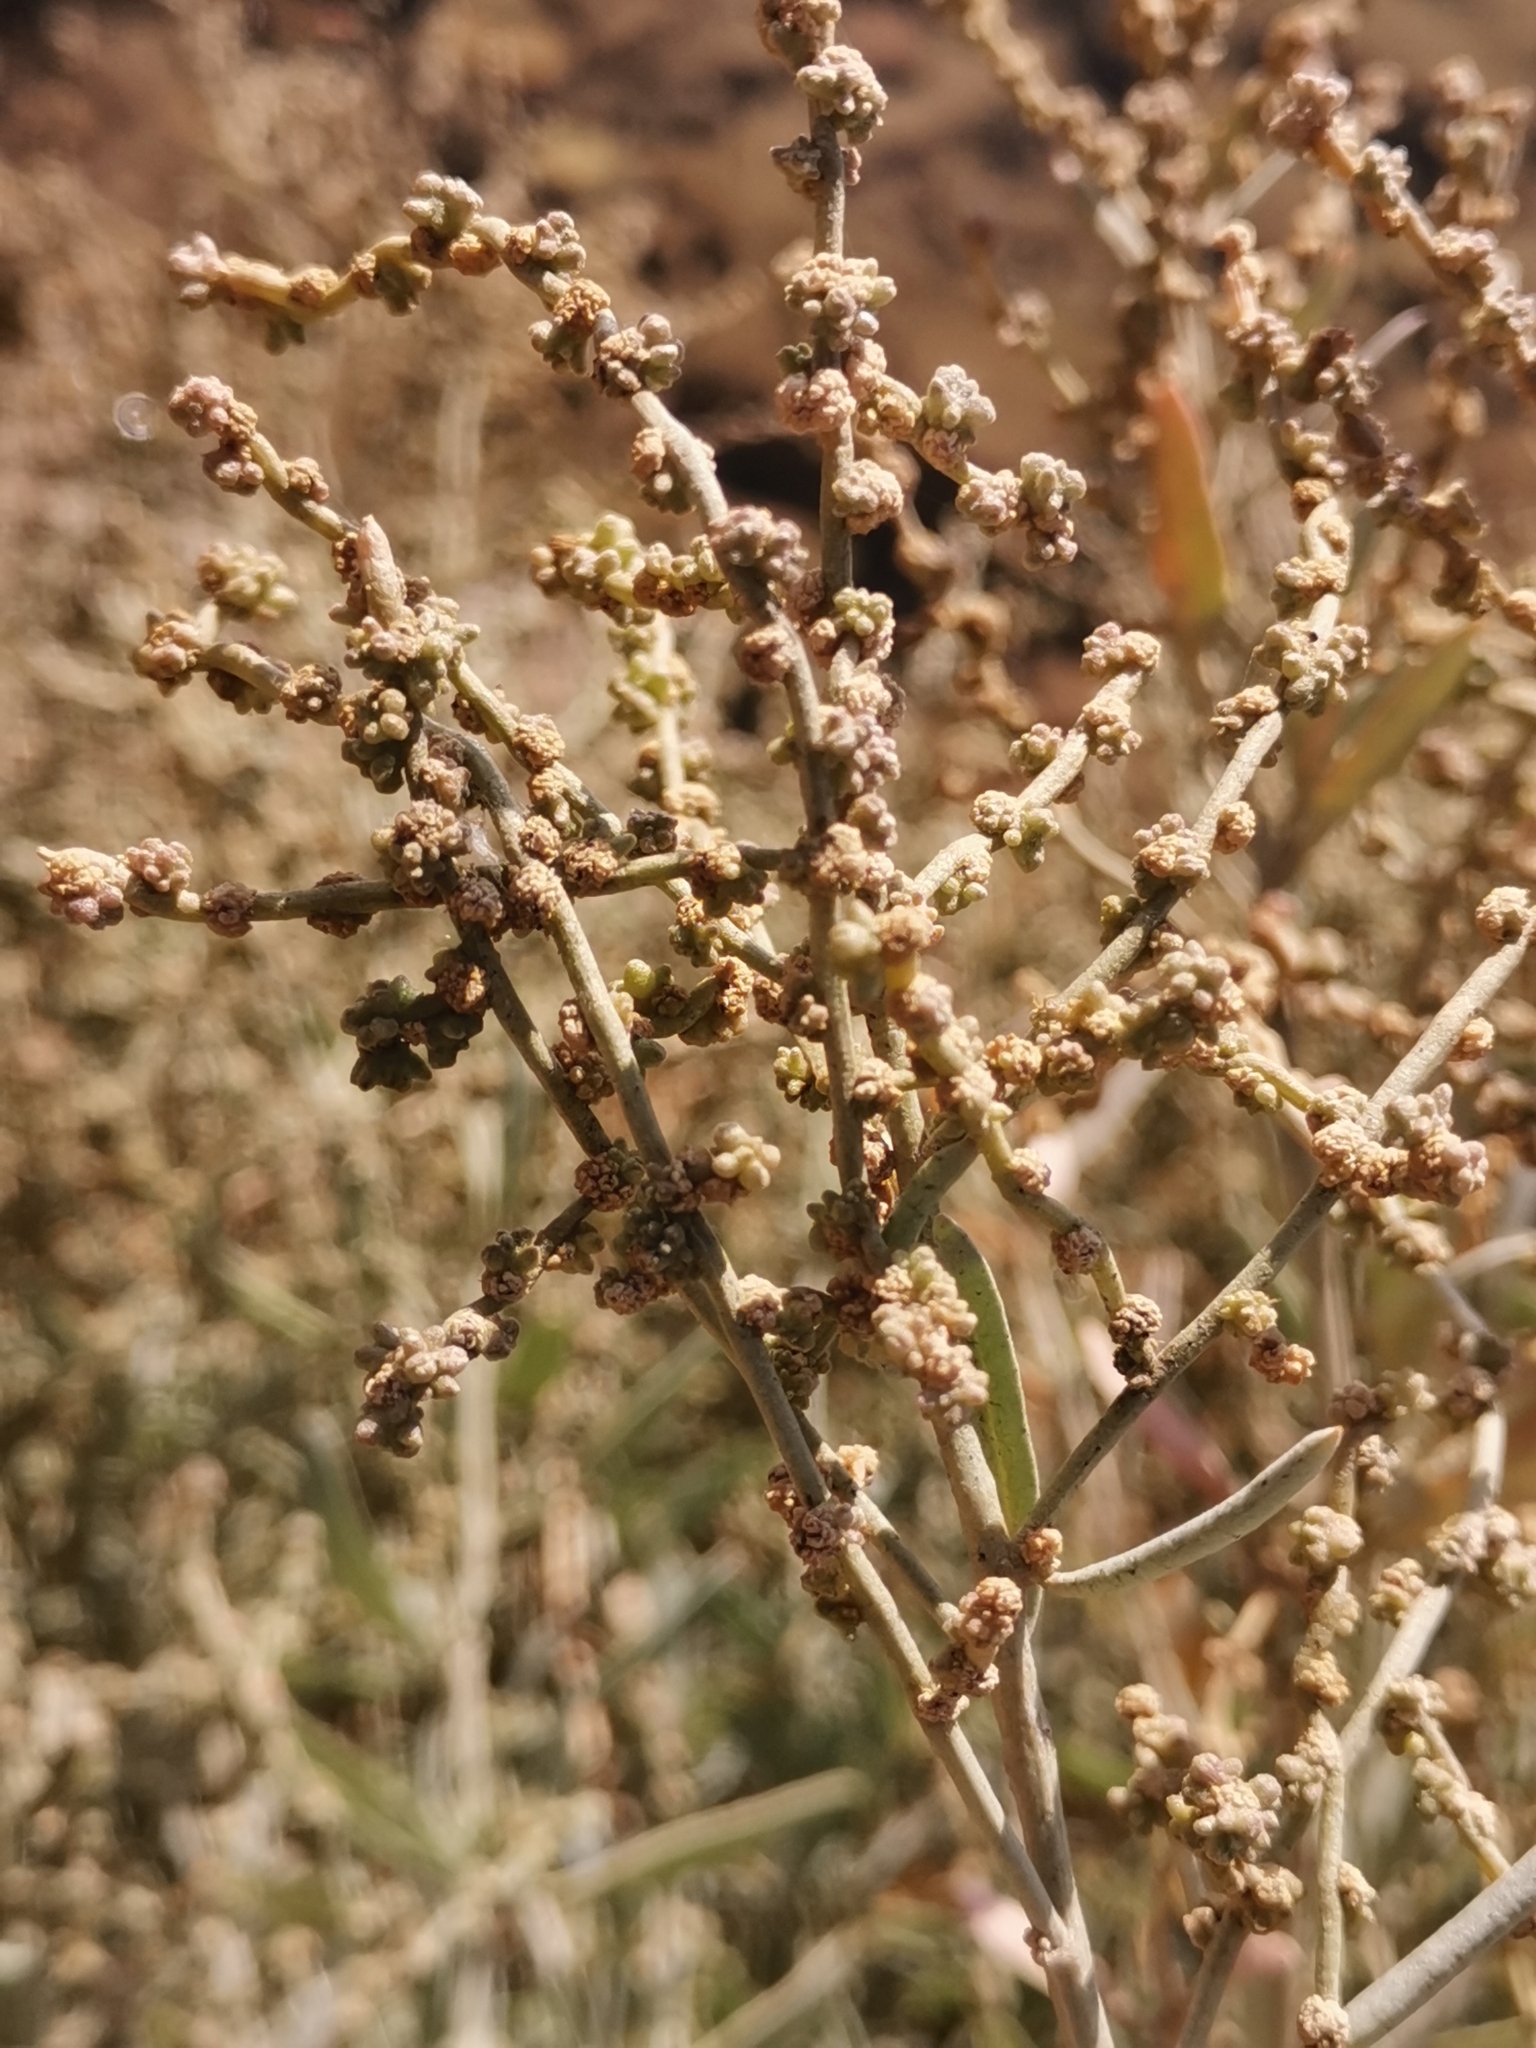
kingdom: Plantae
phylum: Tracheophyta
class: Magnoliopsida
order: Caryophyllales
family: Amaranthaceae
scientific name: Amaranthaceae
